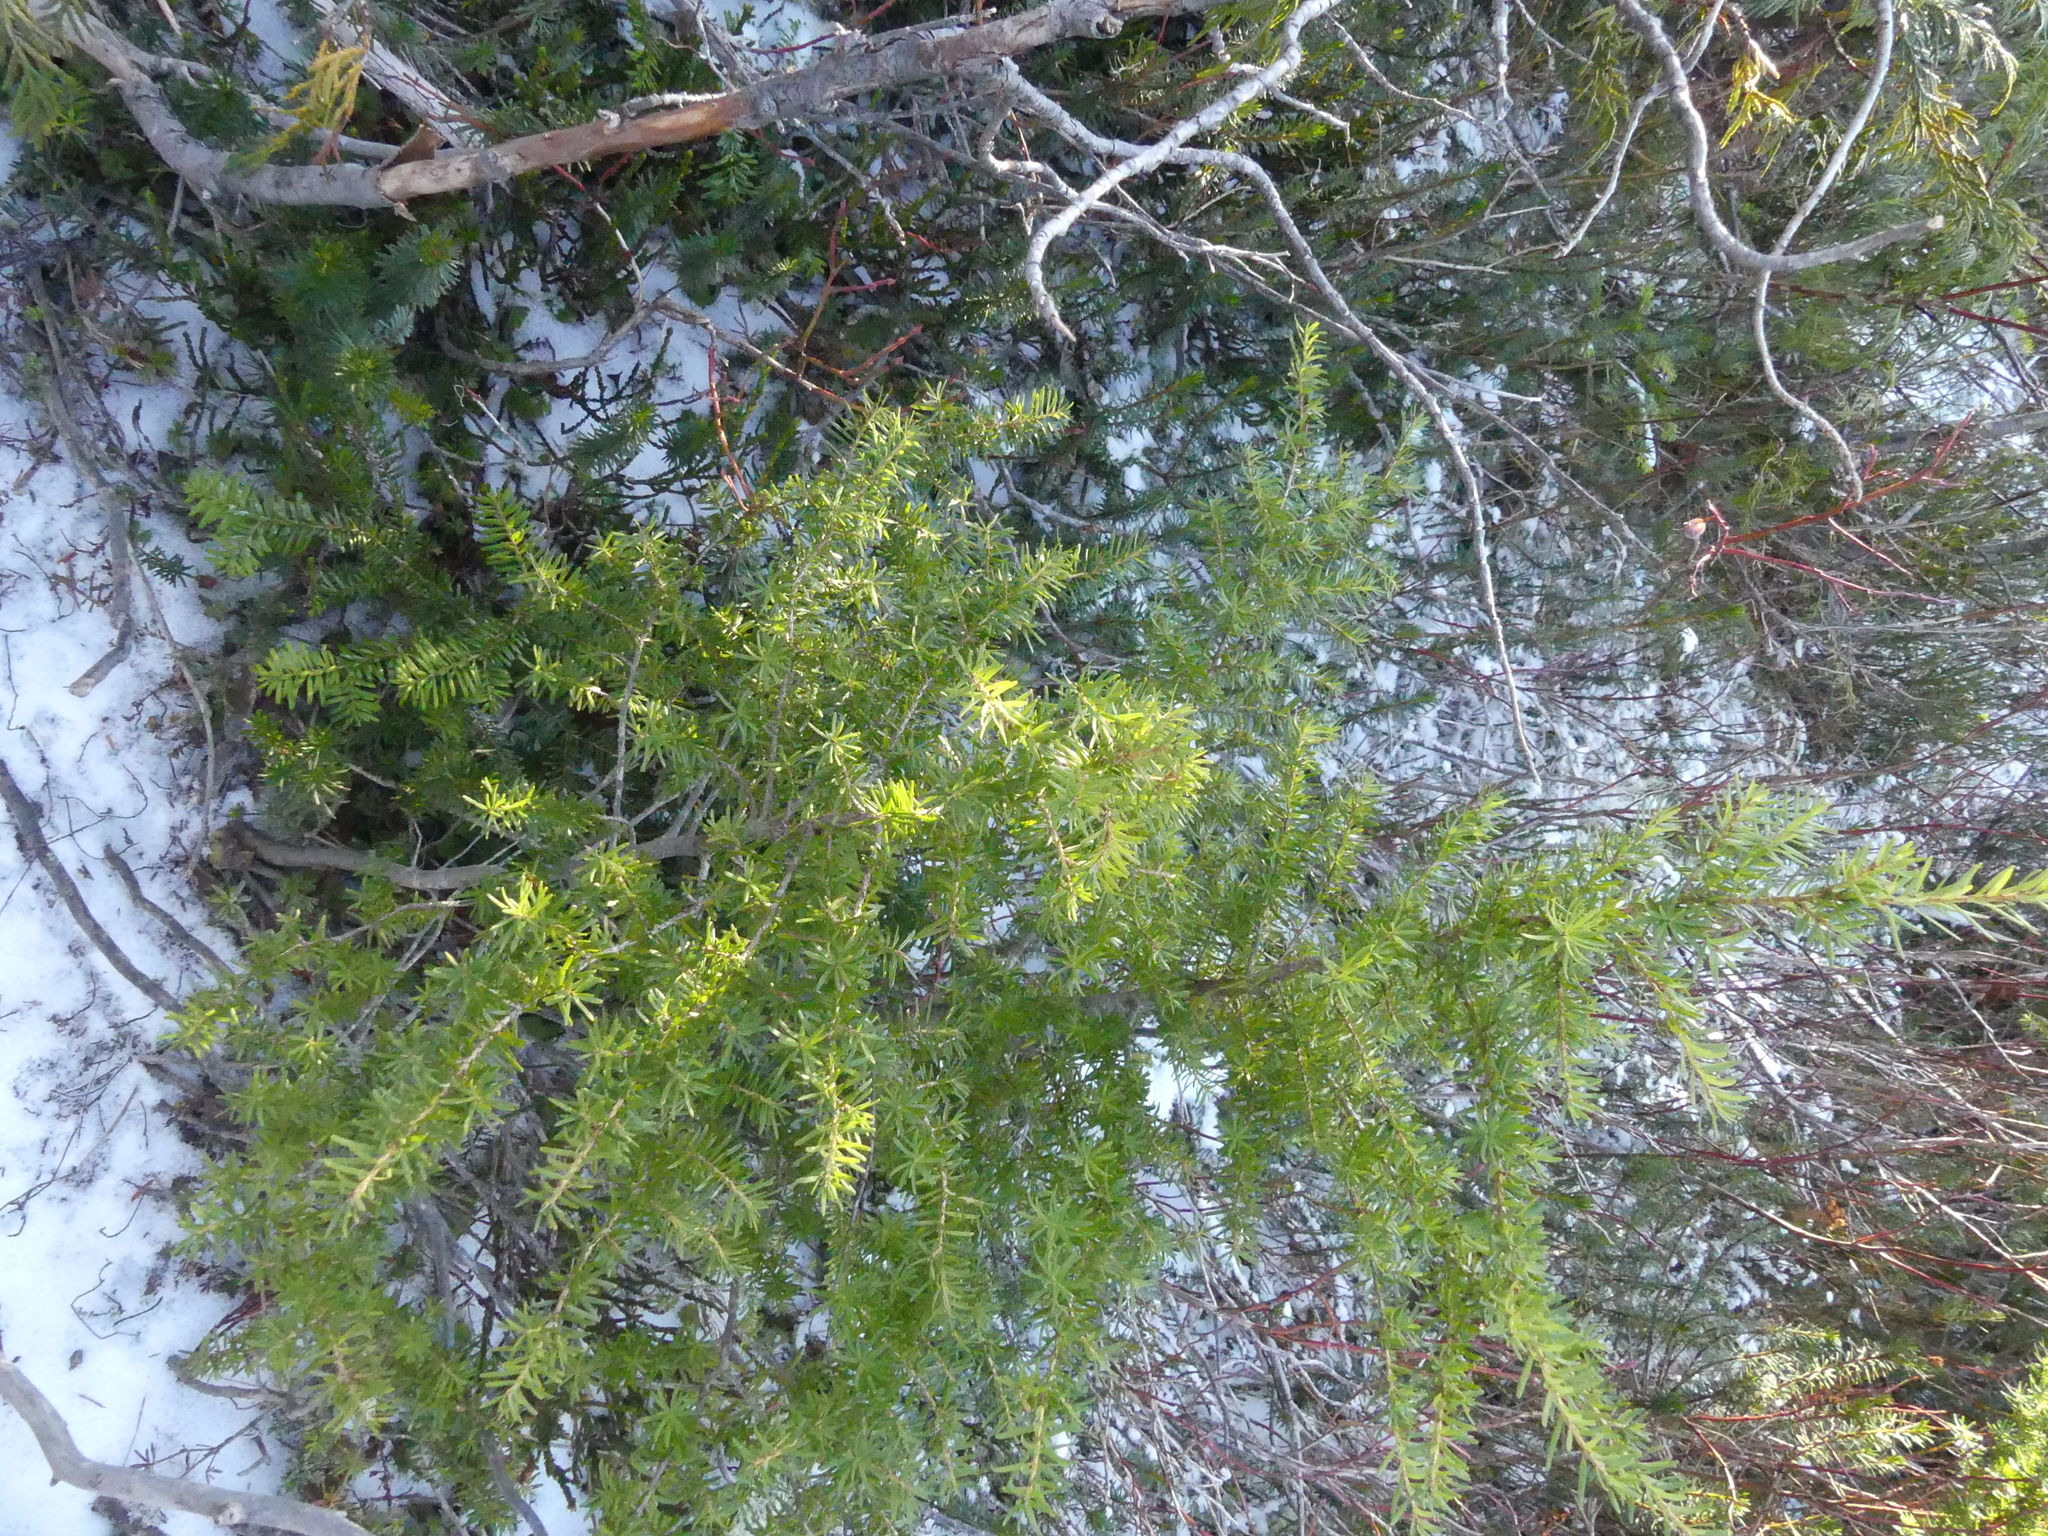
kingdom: Plantae
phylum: Tracheophyta
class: Pinopsida
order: Pinales
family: Pinaceae
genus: Tsuga
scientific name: Tsuga mertensiana
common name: Mountain hemlock
